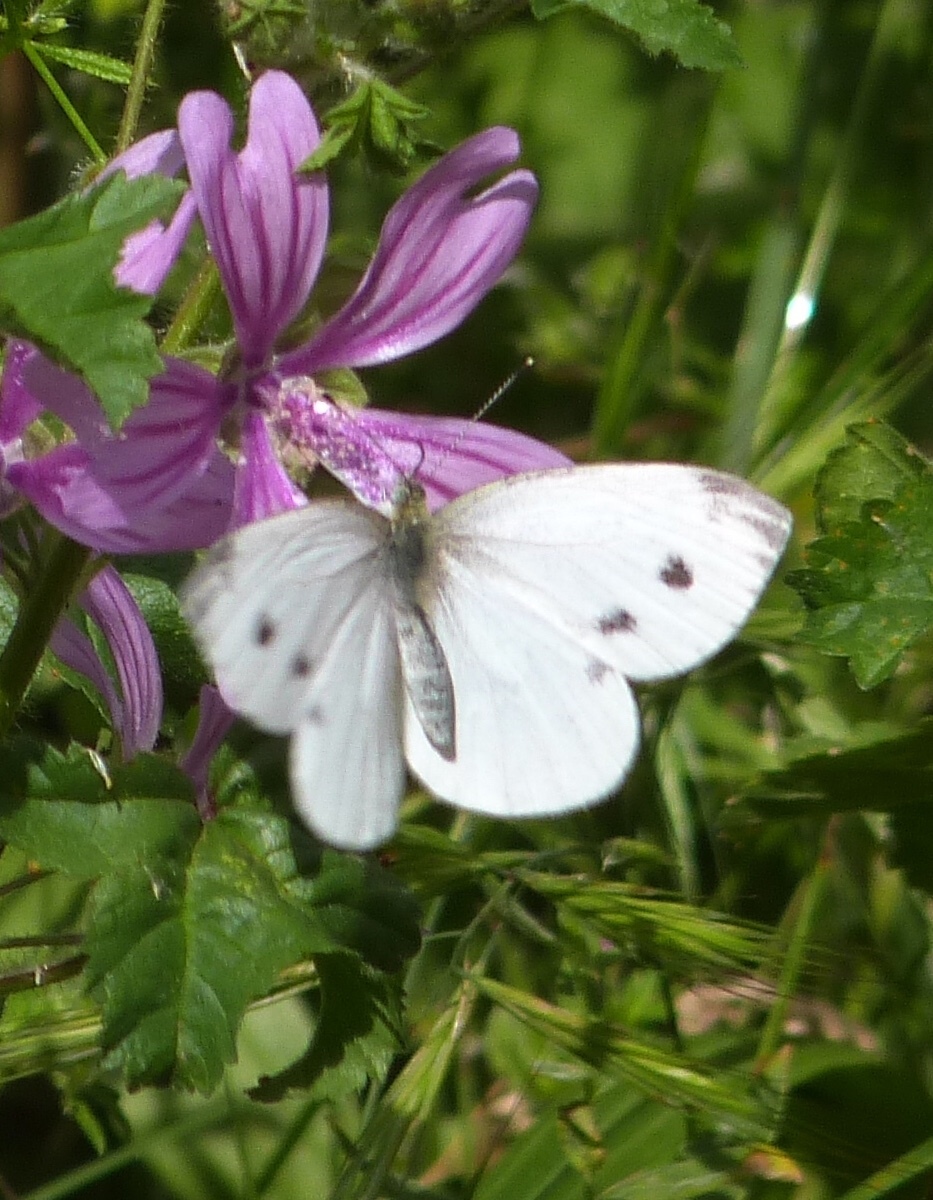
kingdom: Animalia
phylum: Arthropoda
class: Insecta
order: Lepidoptera
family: Pieridae
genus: Pieris
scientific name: Pieris napi
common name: Green-veined white
